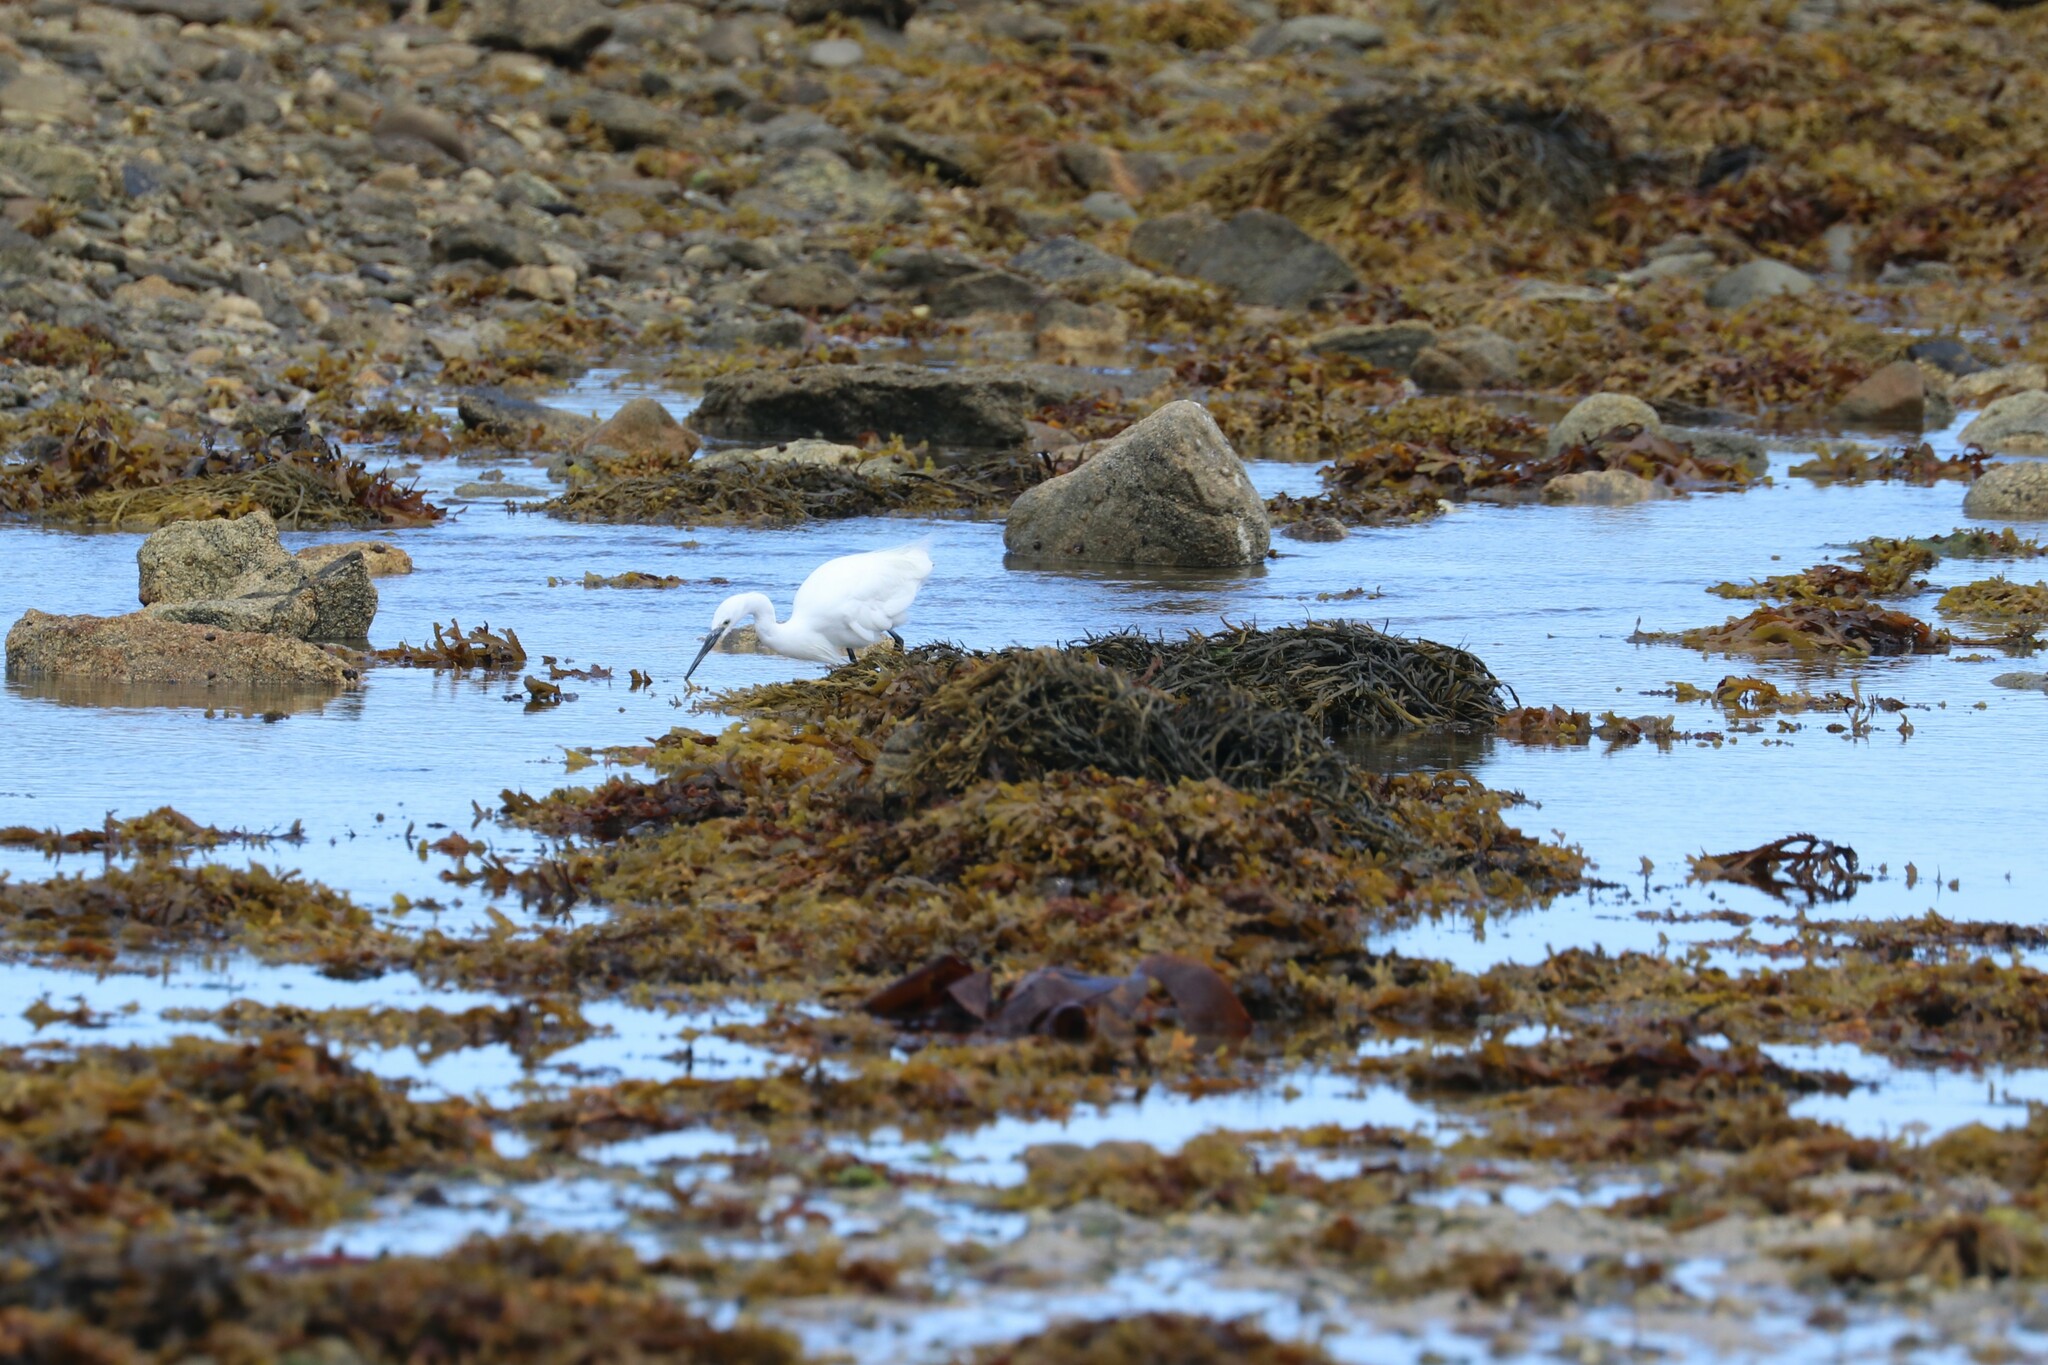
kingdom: Animalia
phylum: Chordata
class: Aves
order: Pelecaniformes
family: Ardeidae
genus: Egretta
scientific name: Egretta garzetta
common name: Little egret
